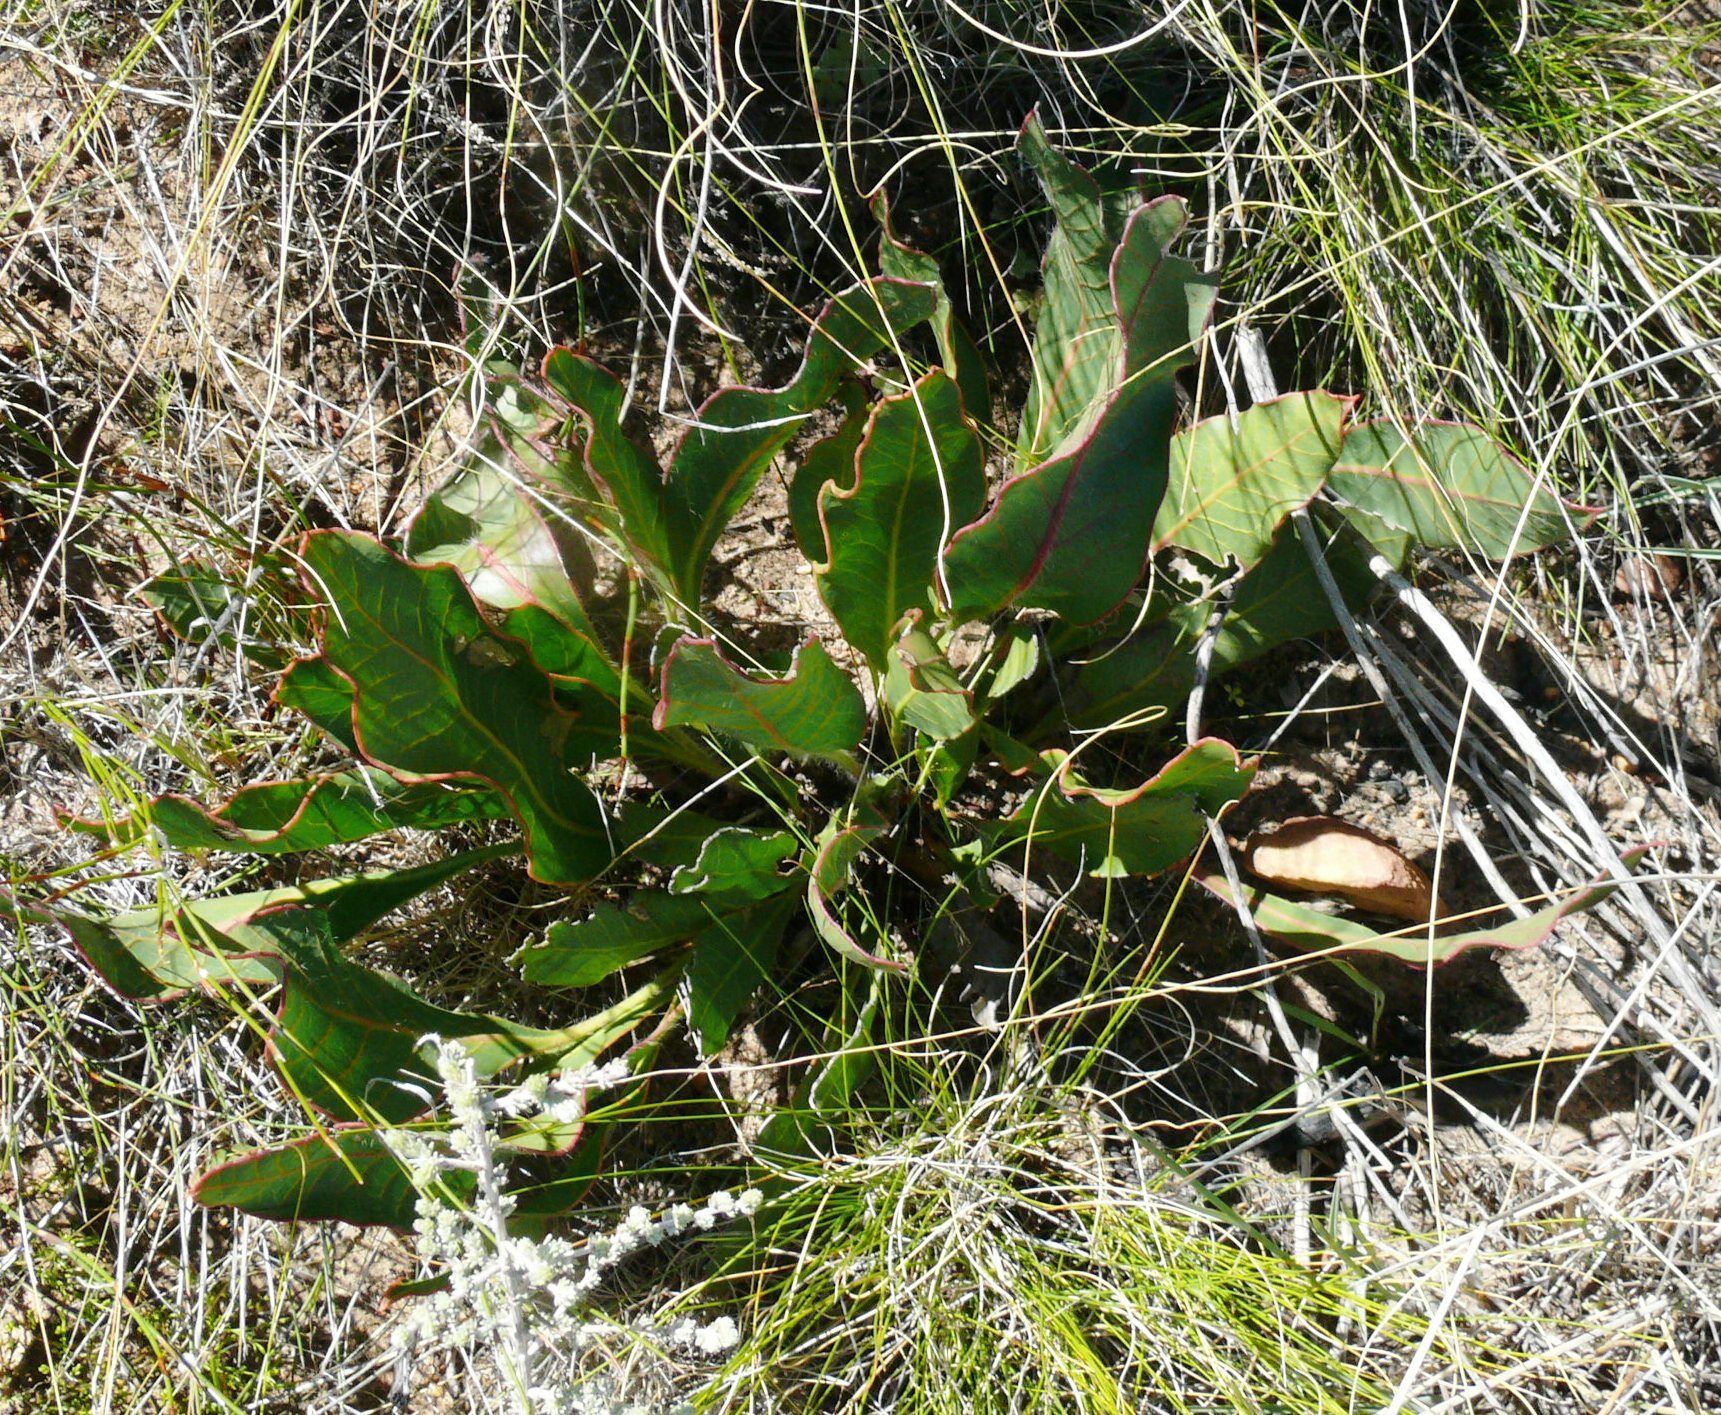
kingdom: Plantae
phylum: Tracheophyta
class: Magnoliopsida
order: Proteales
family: Proteaceae
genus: Protea
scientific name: Protea scolopendriifolia
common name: Harts-tongue-fern sugarbush
